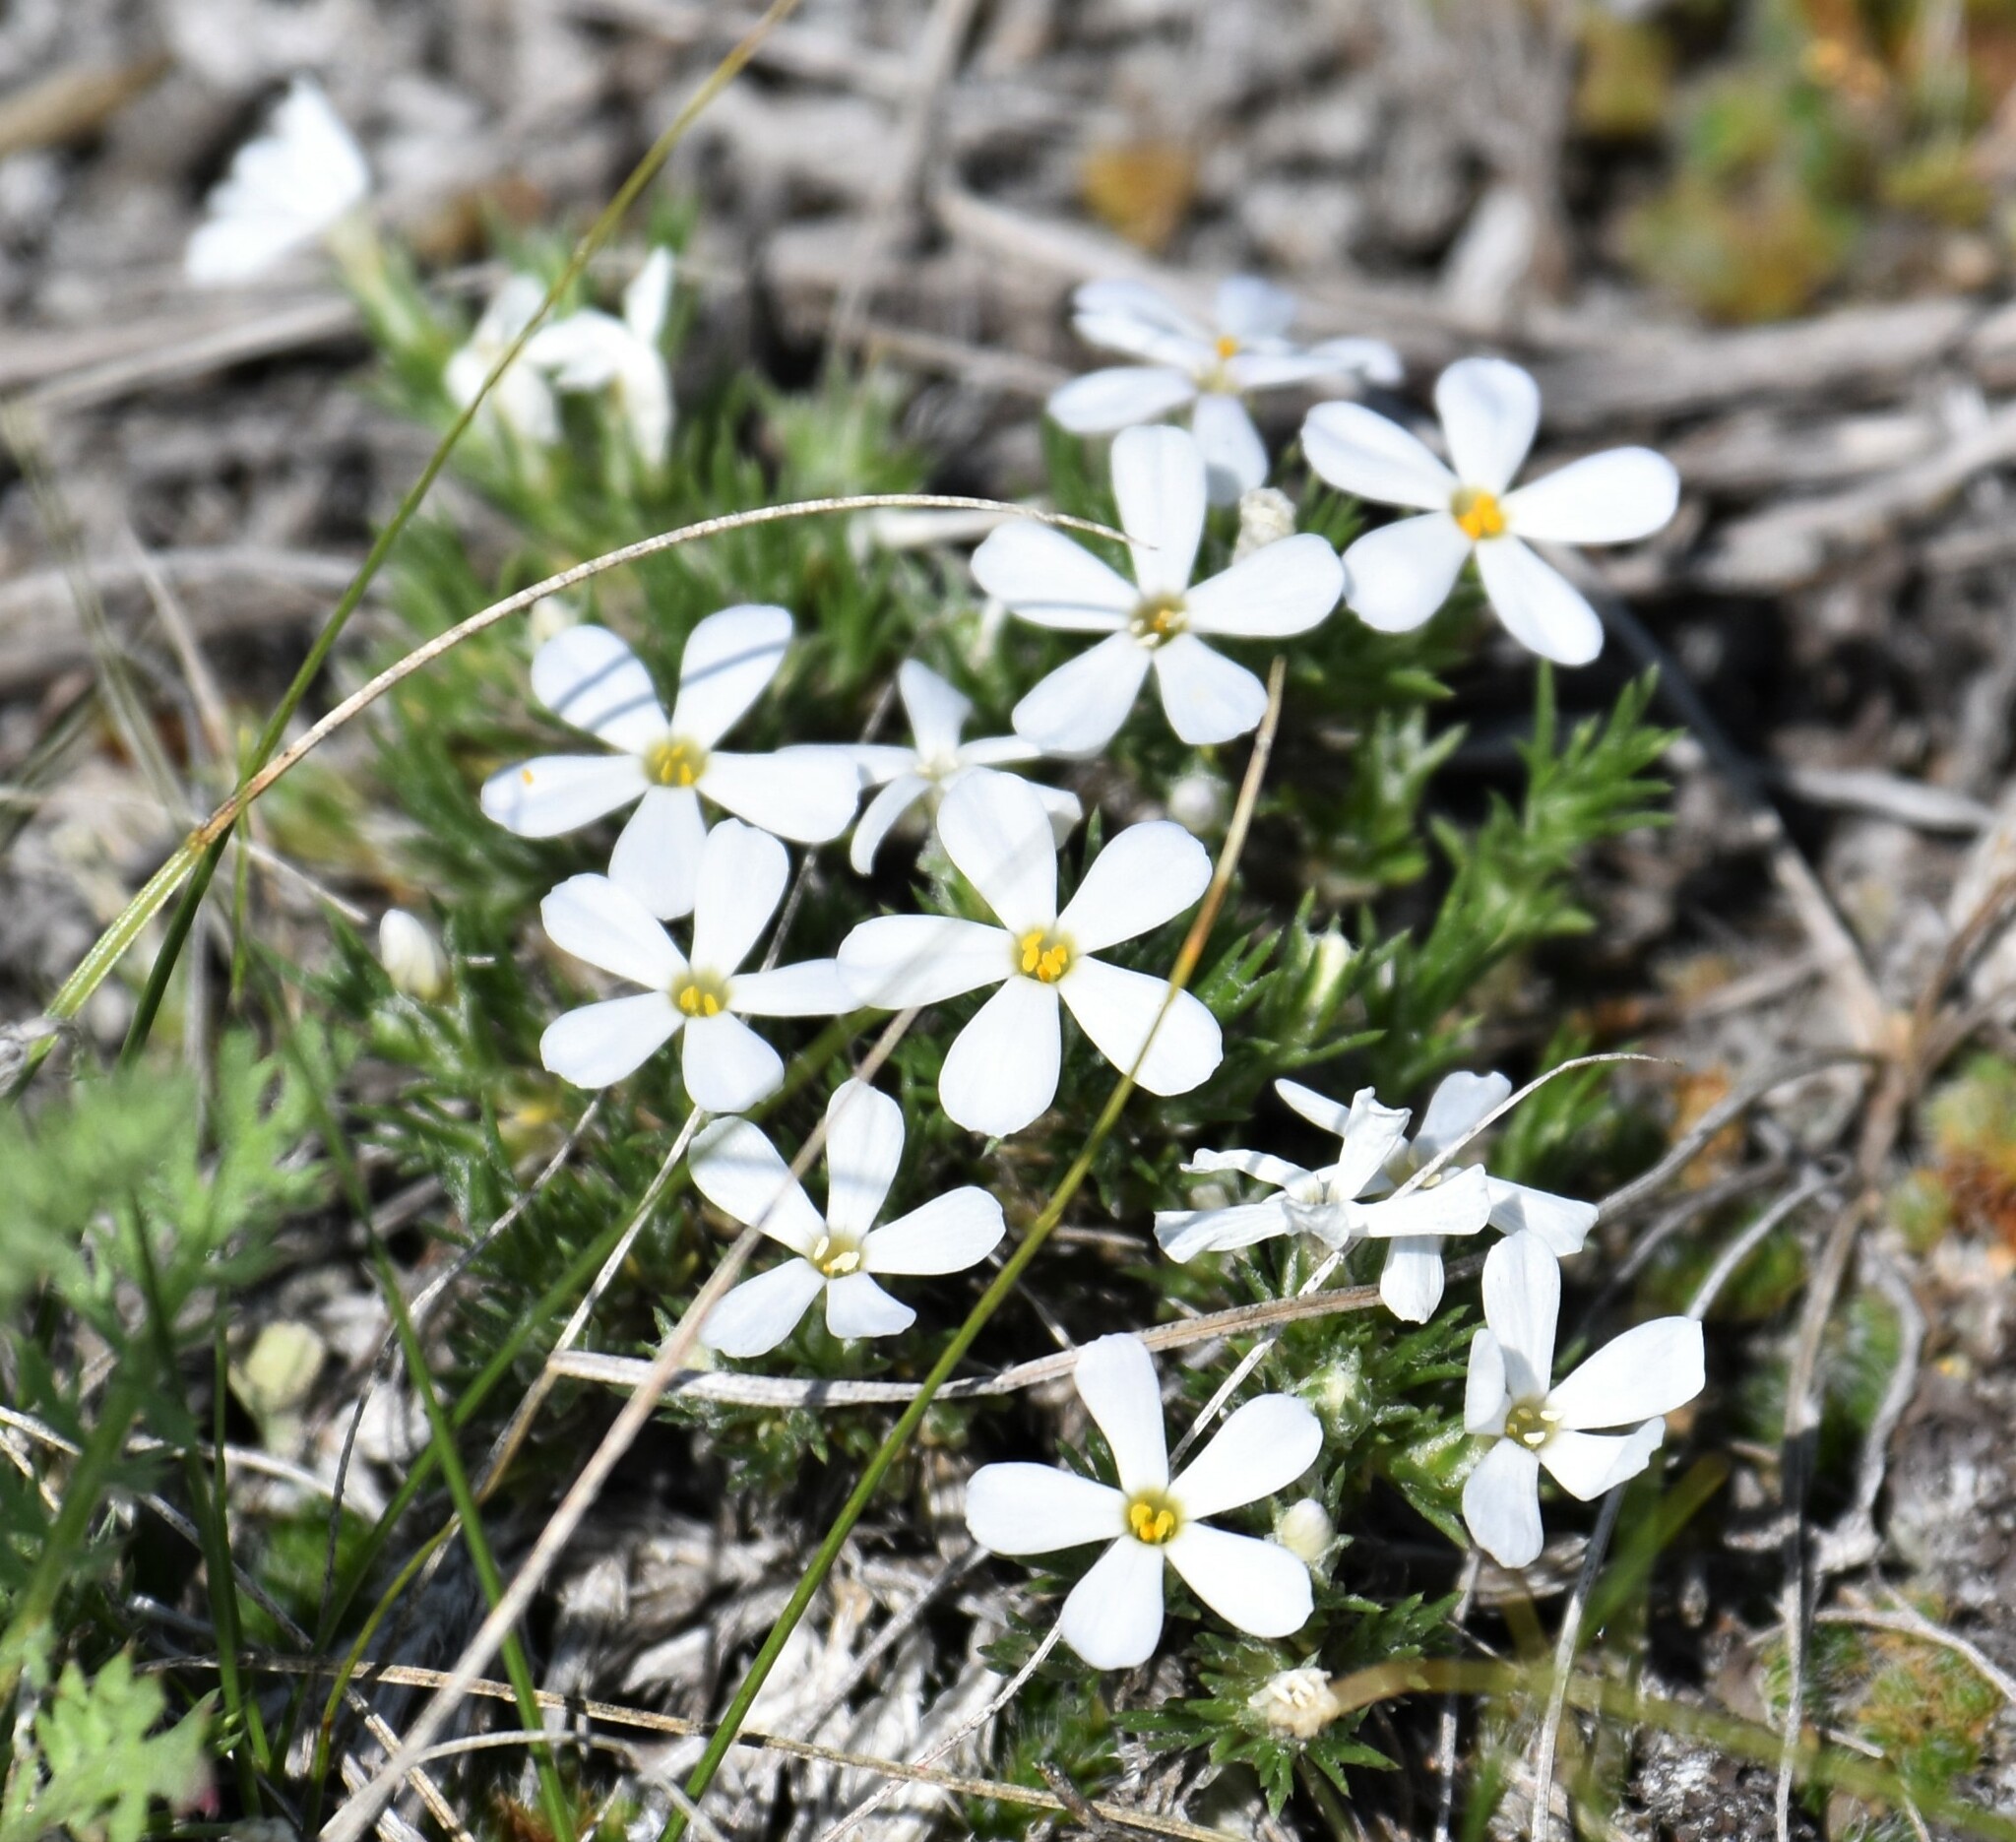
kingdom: Plantae
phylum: Tracheophyta
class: Magnoliopsida
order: Ericales
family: Polemoniaceae
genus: Phlox
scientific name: Phlox hoodii
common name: Moss phlox
